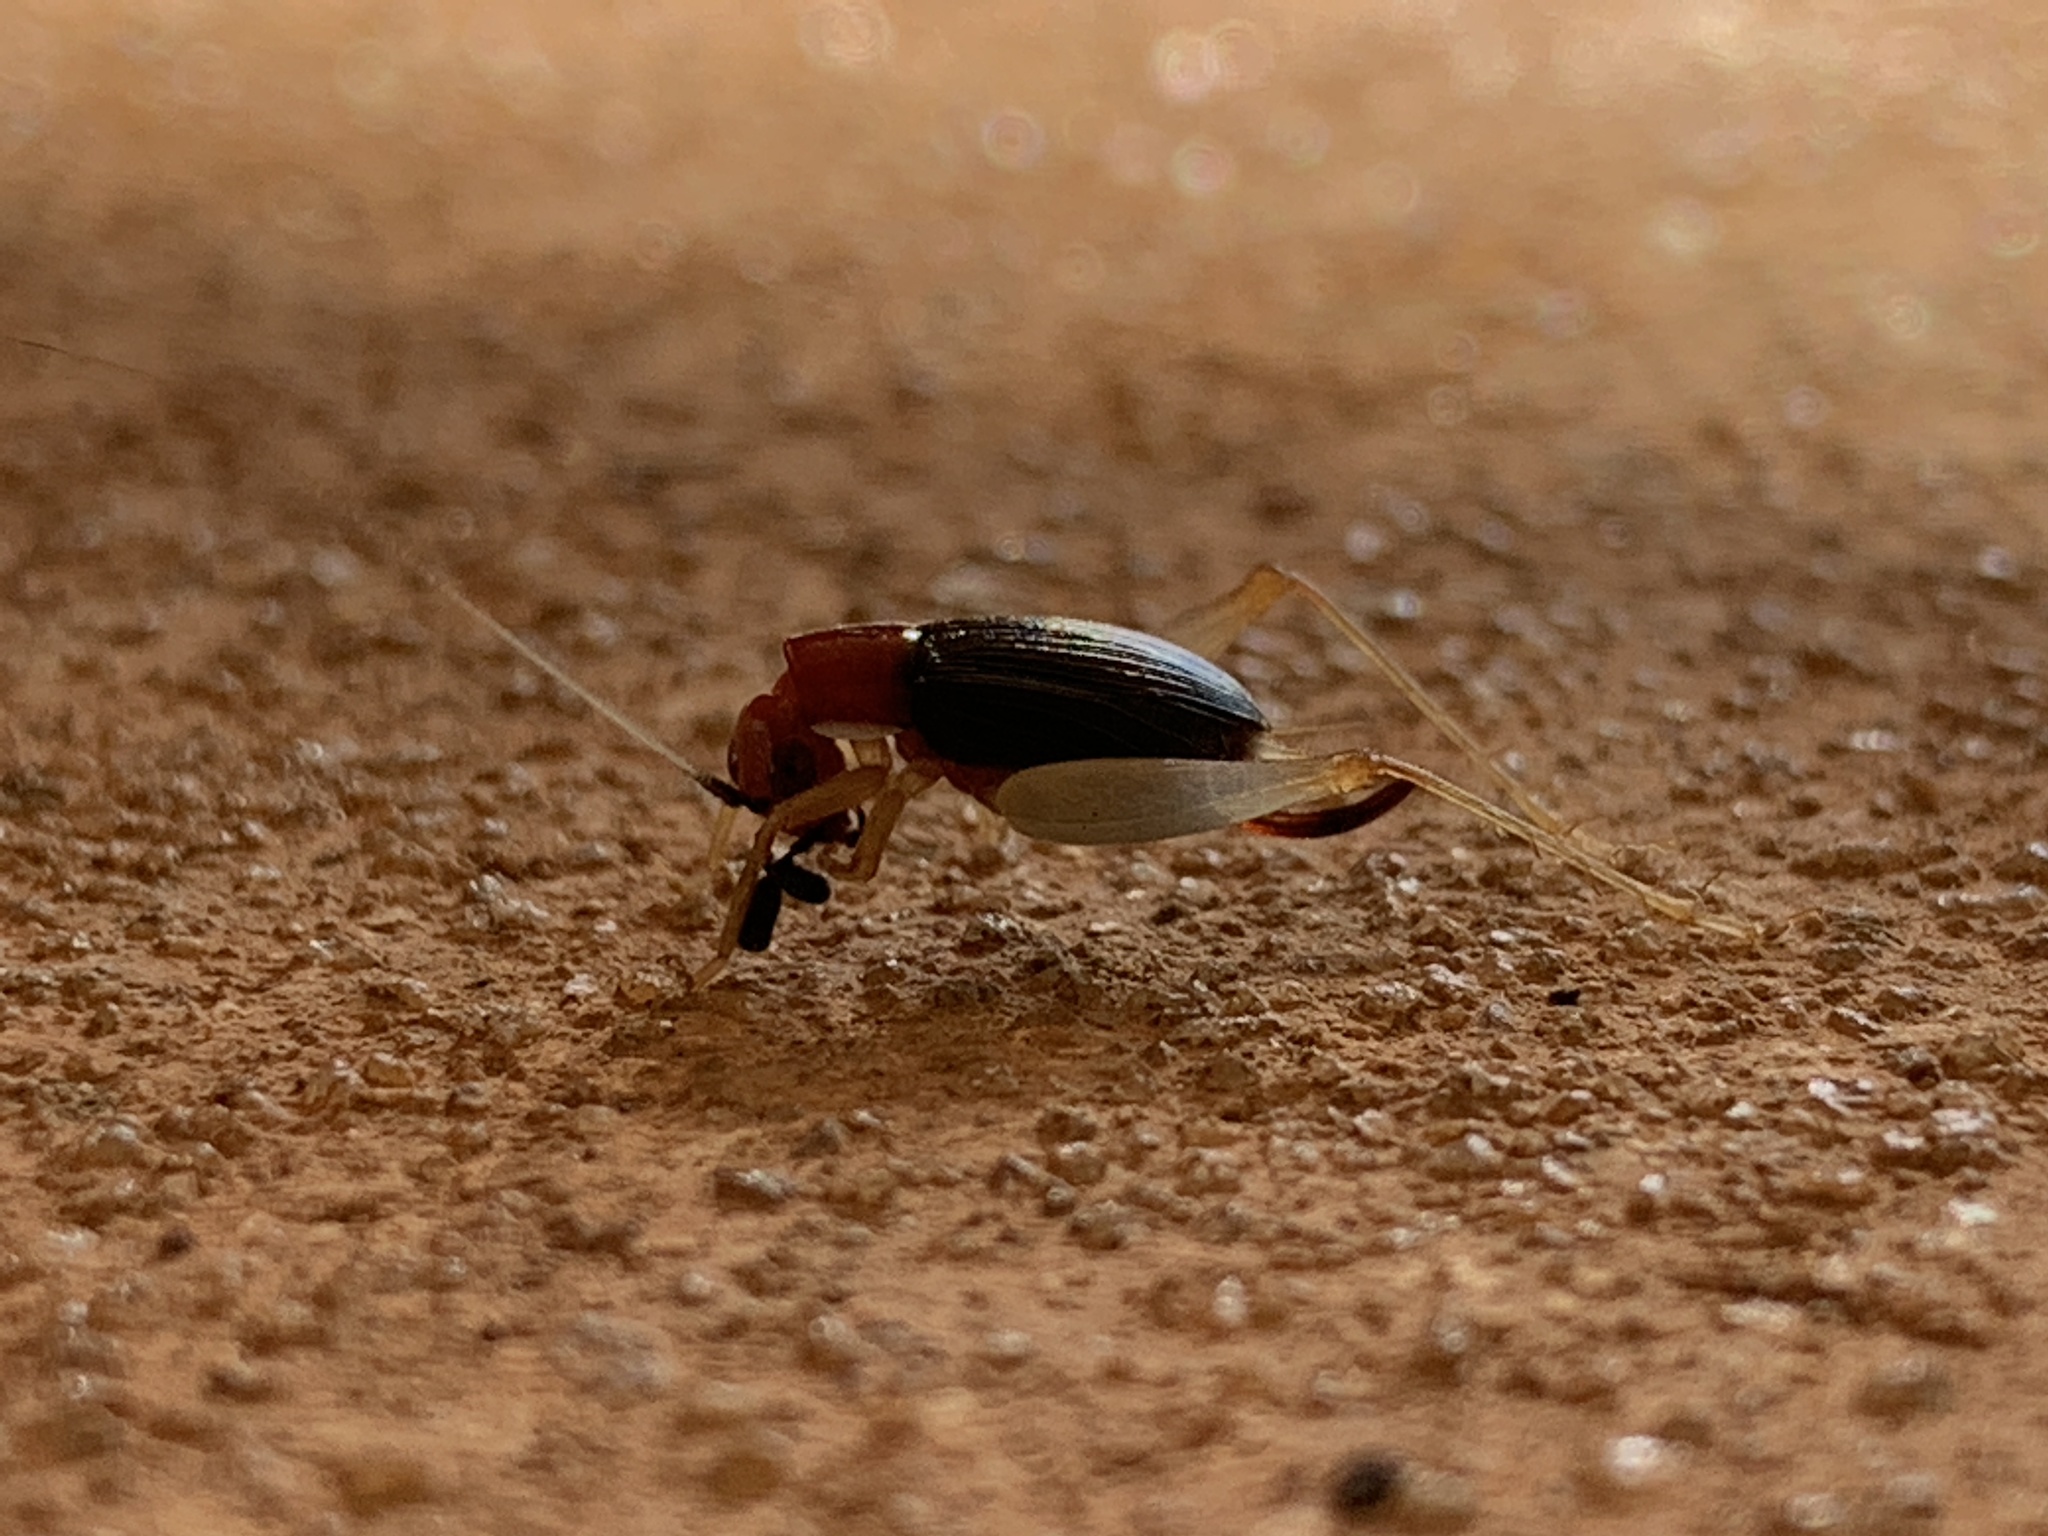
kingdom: Animalia
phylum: Arthropoda
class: Insecta
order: Orthoptera
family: Trigonidiidae
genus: Phyllopalpus
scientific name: Phyllopalpus pulchellus
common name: Handsome trig
